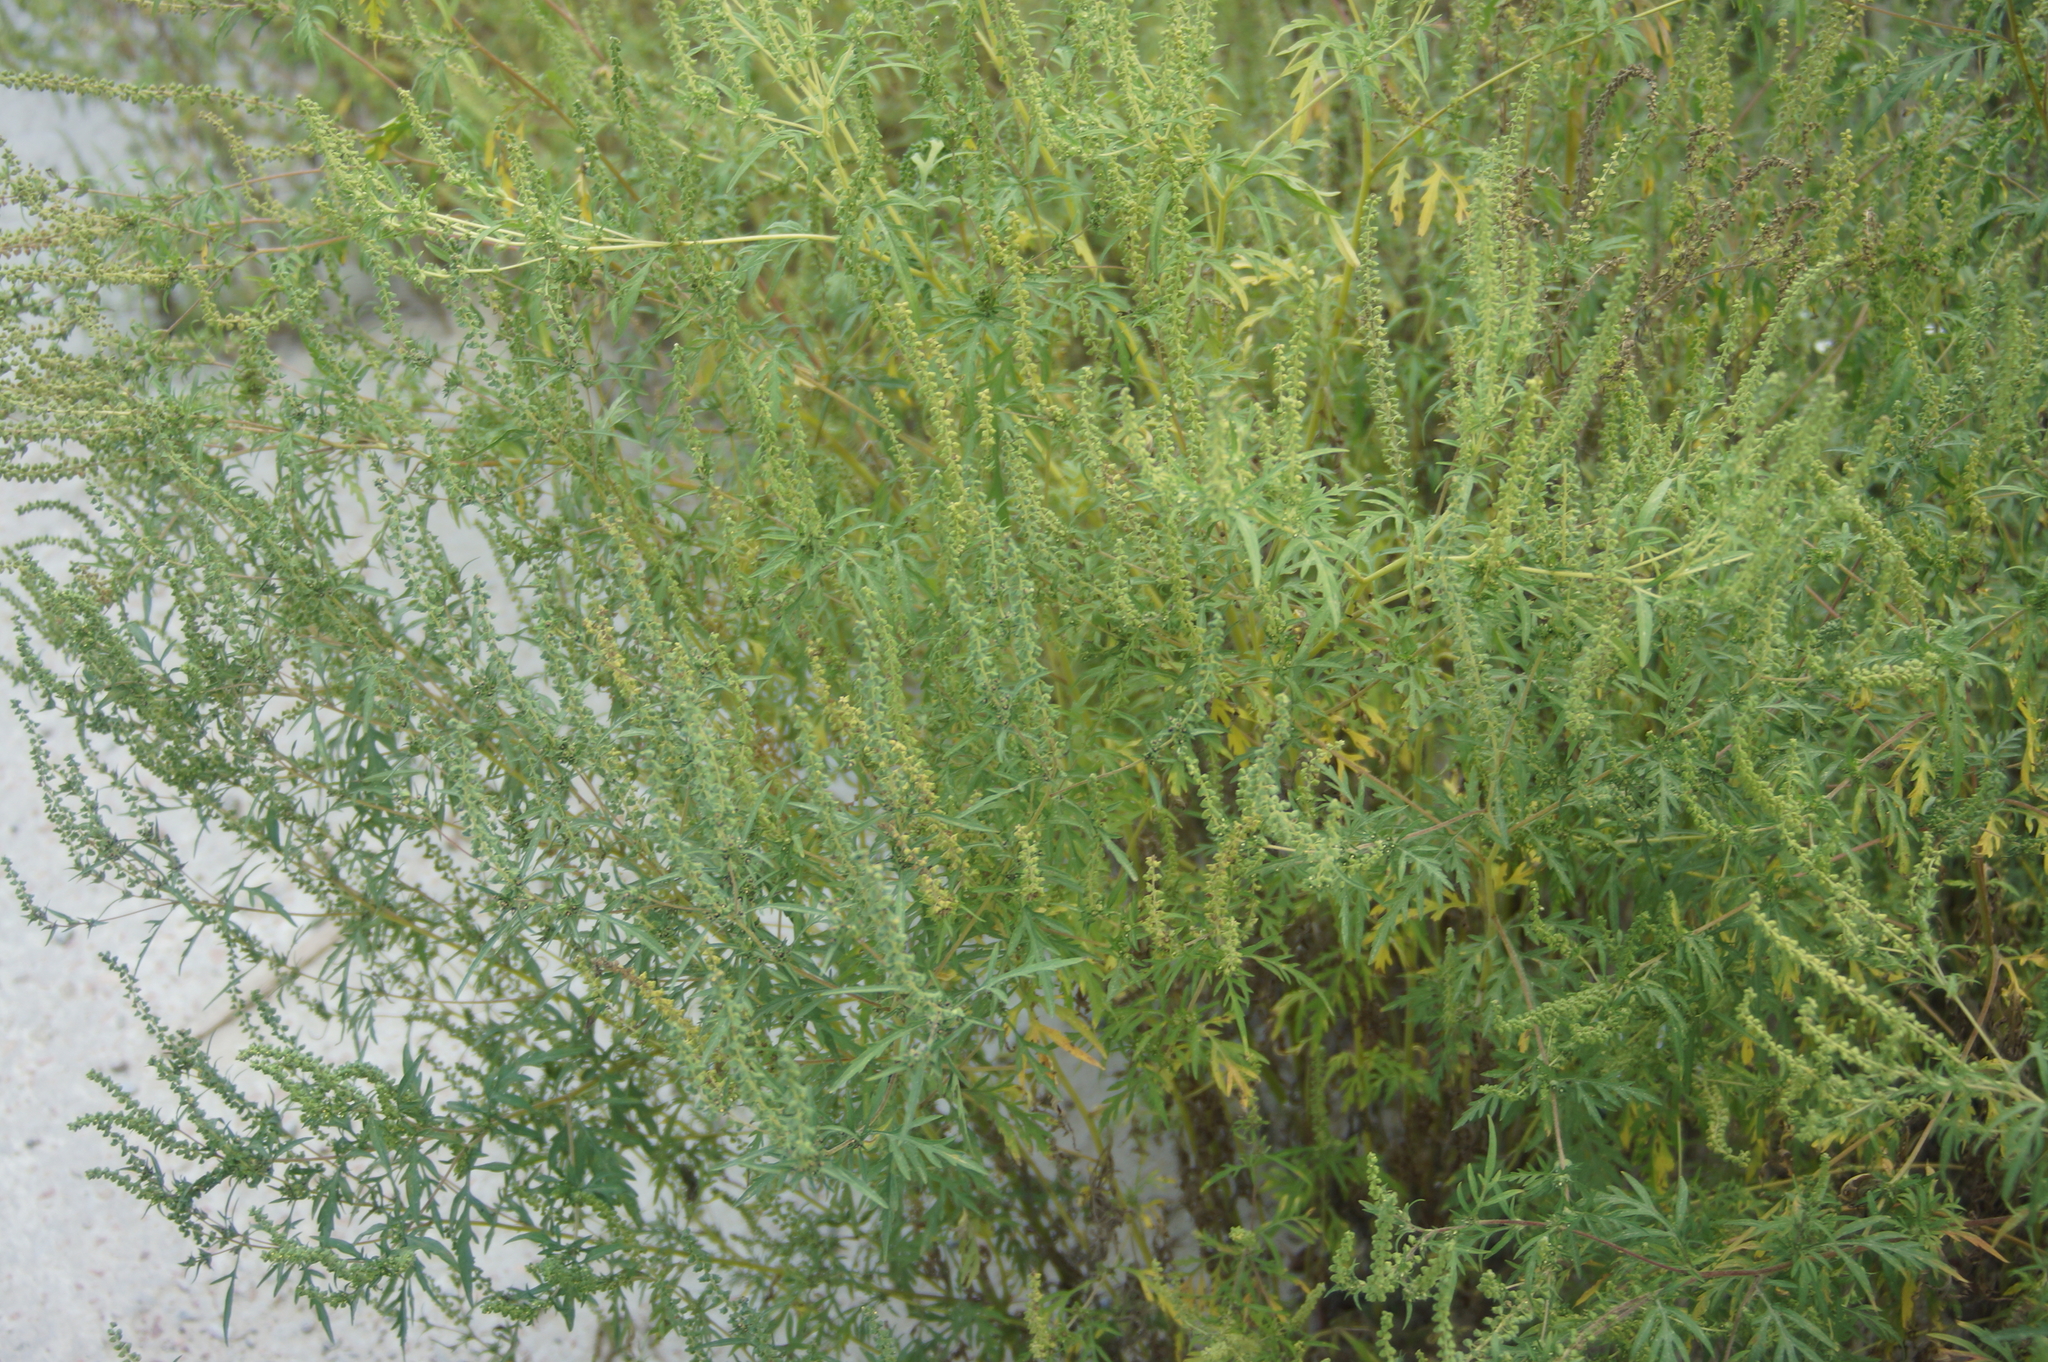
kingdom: Plantae
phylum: Tracheophyta
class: Magnoliopsida
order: Asterales
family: Asteraceae
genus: Ambrosia
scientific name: Ambrosia artemisiifolia
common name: Annual ragweed
